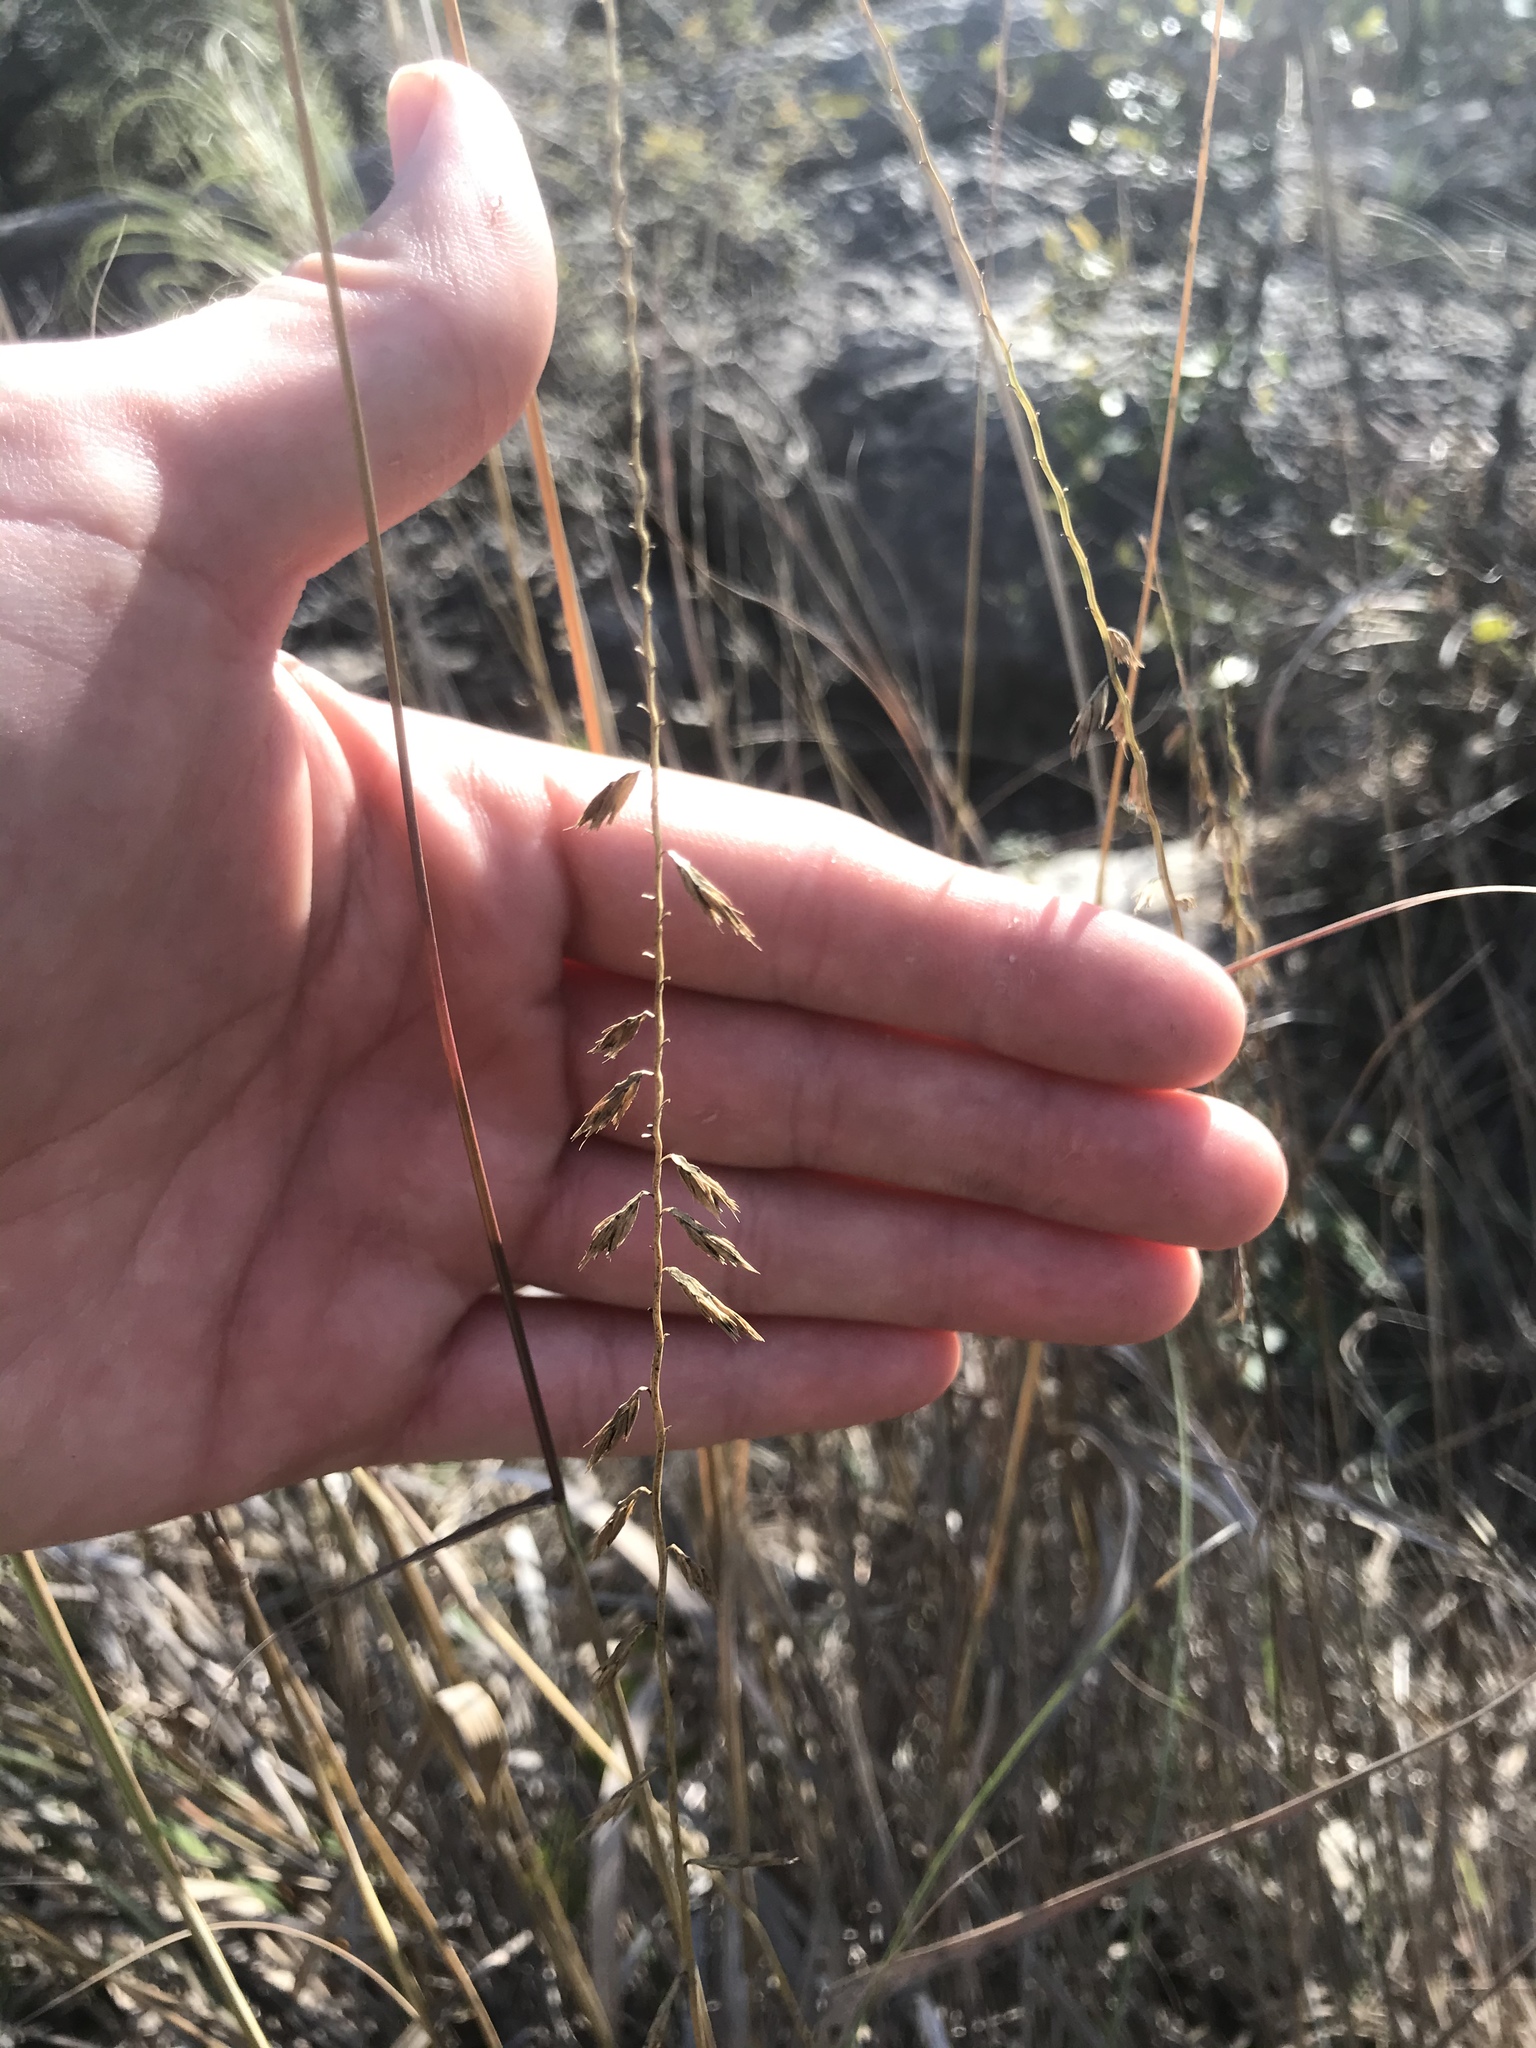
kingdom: Plantae
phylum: Tracheophyta
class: Liliopsida
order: Poales
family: Poaceae
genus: Bouteloua
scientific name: Bouteloua curtipendula
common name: Side-oats grama
